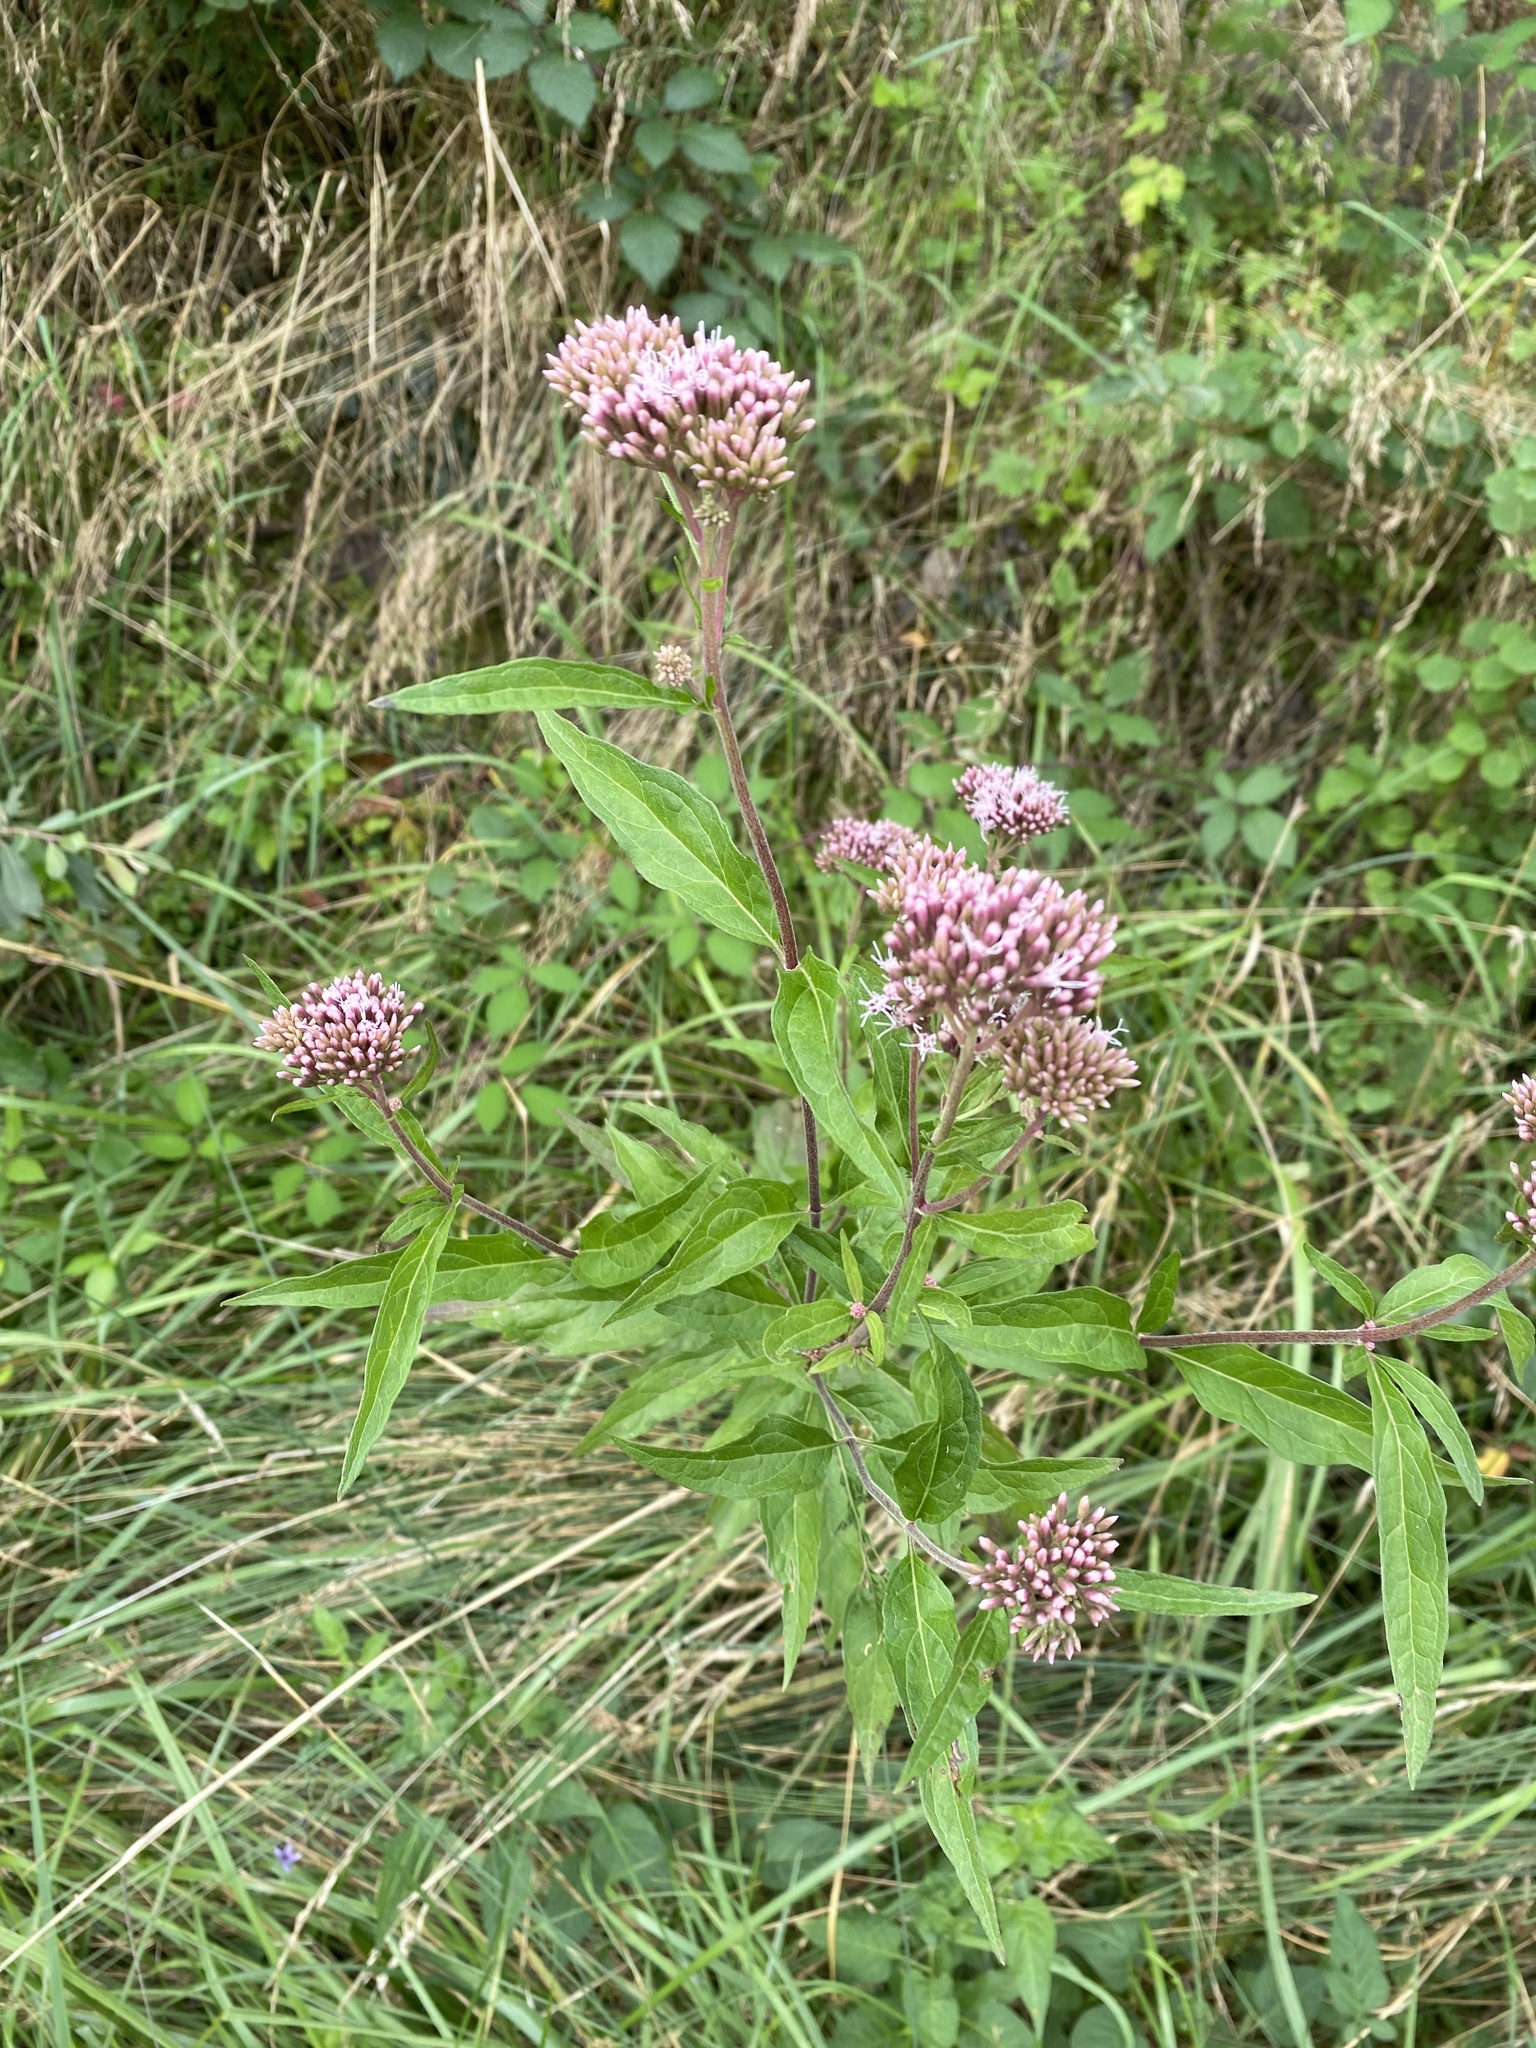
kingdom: Plantae
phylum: Tracheophyta
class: Magnoliopsida
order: Asterales
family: Asteraceae
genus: Eupatorium
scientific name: Eupatorium cannabinum
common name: Hemp-agrimony
